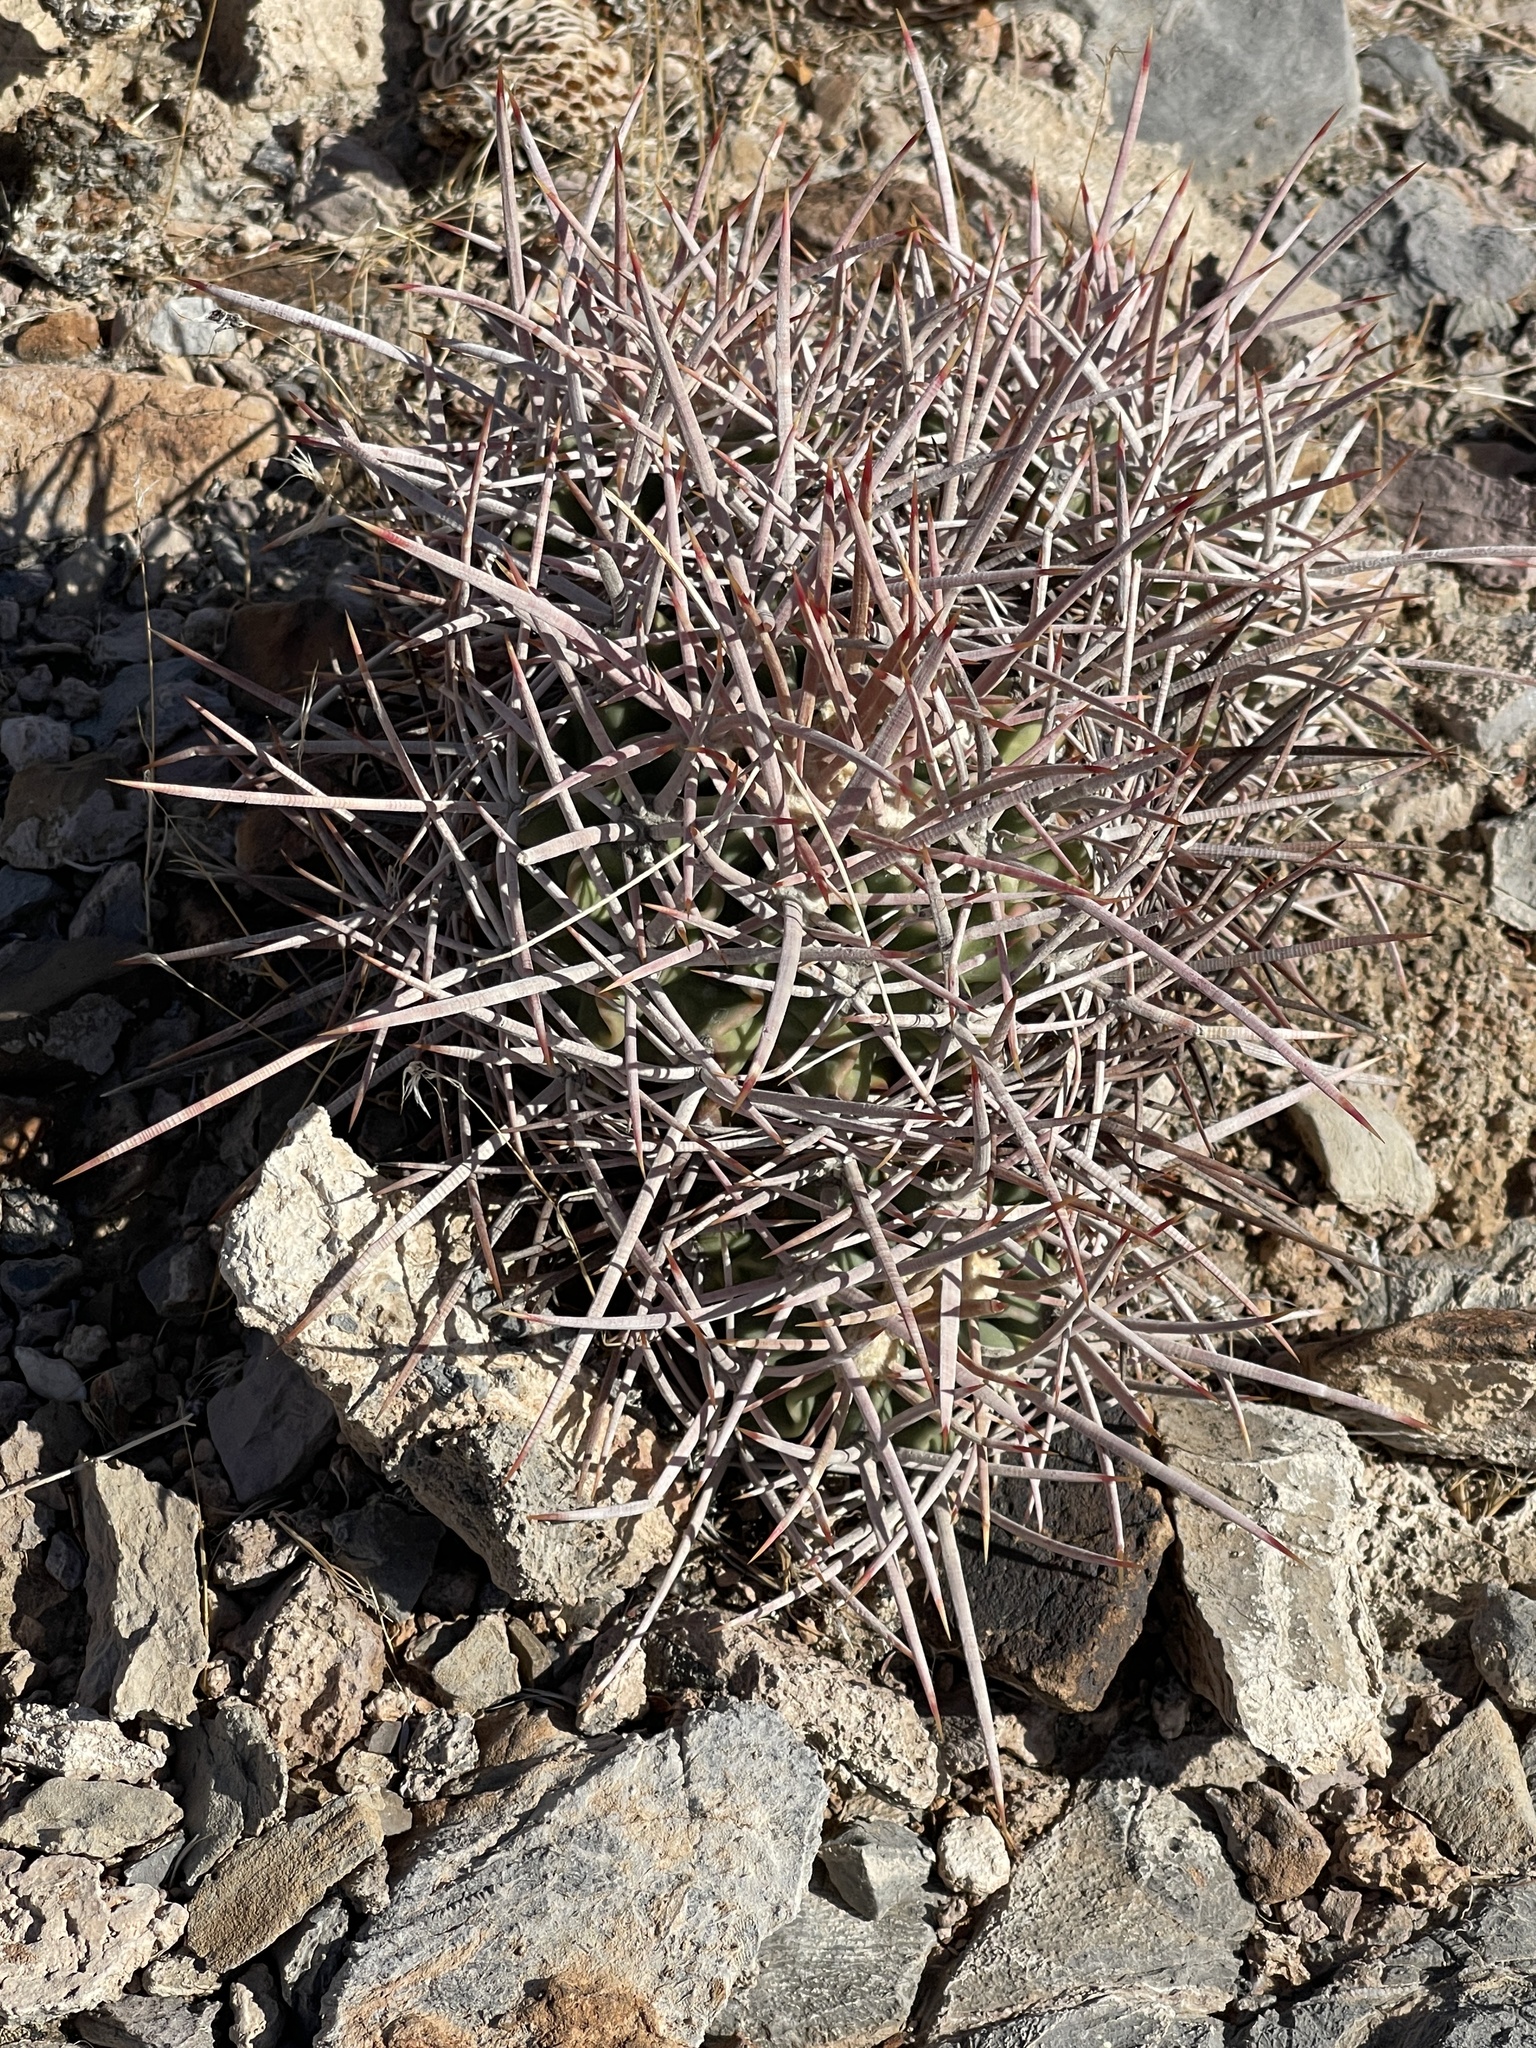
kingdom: Plantae
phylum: Tracheophyta
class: Magnoliopsida
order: Caryophyllales
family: Cactaceae
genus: Echinocactus
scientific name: Echinocactus polycephalus
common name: Cottontop cactus
